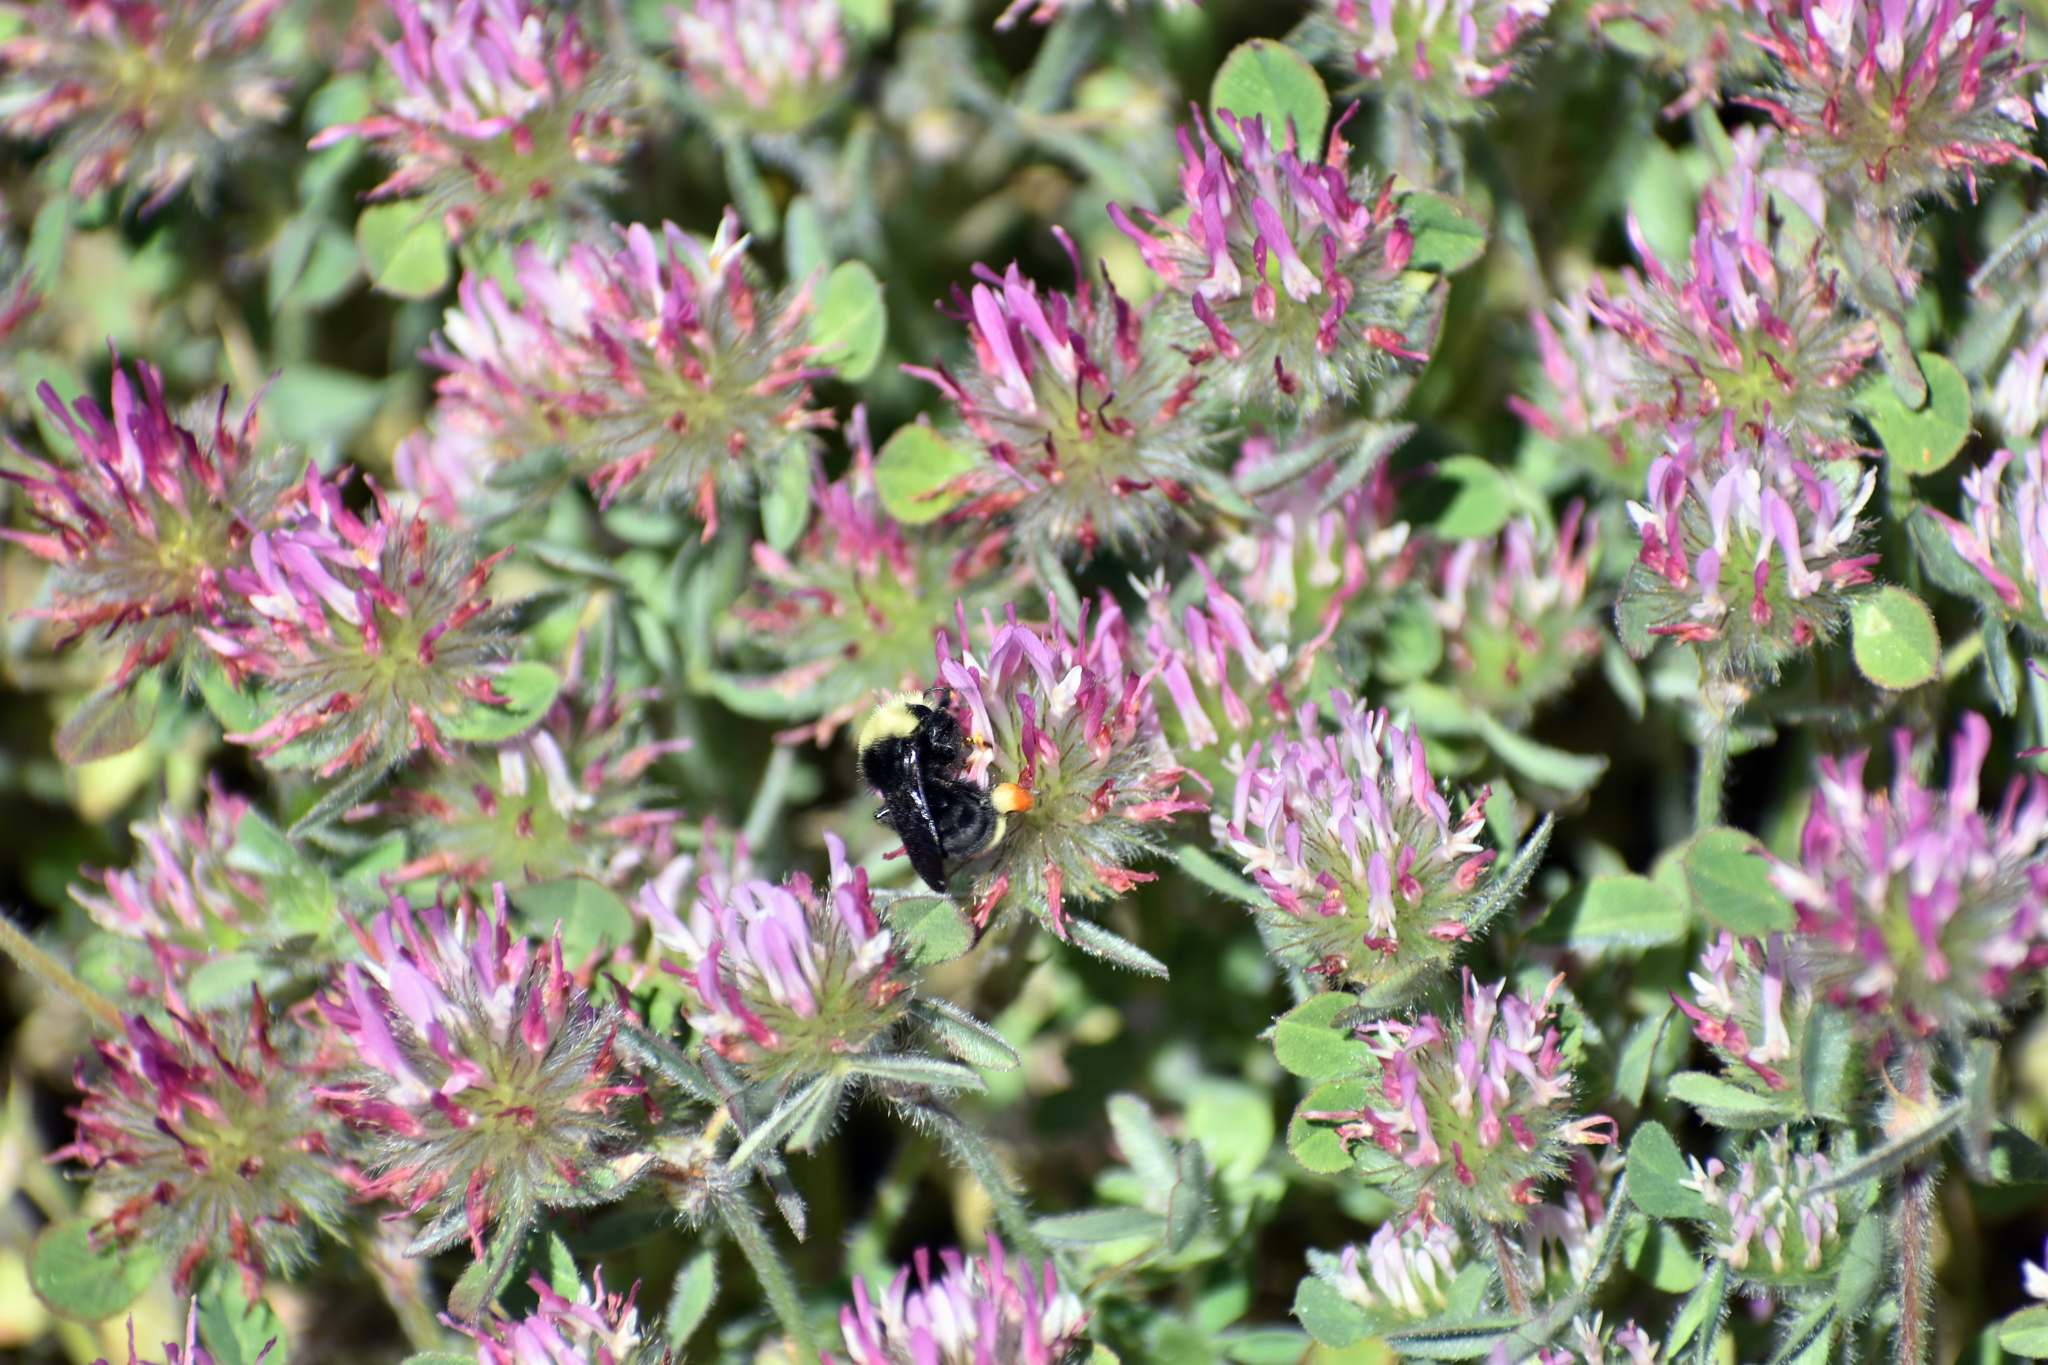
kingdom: Animalia
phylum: Arthropoda
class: Insecta
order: Hymenoptera
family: Apidae
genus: Bombus
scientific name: Bombus vosnesenskii
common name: Vosnesensky bumble bee
